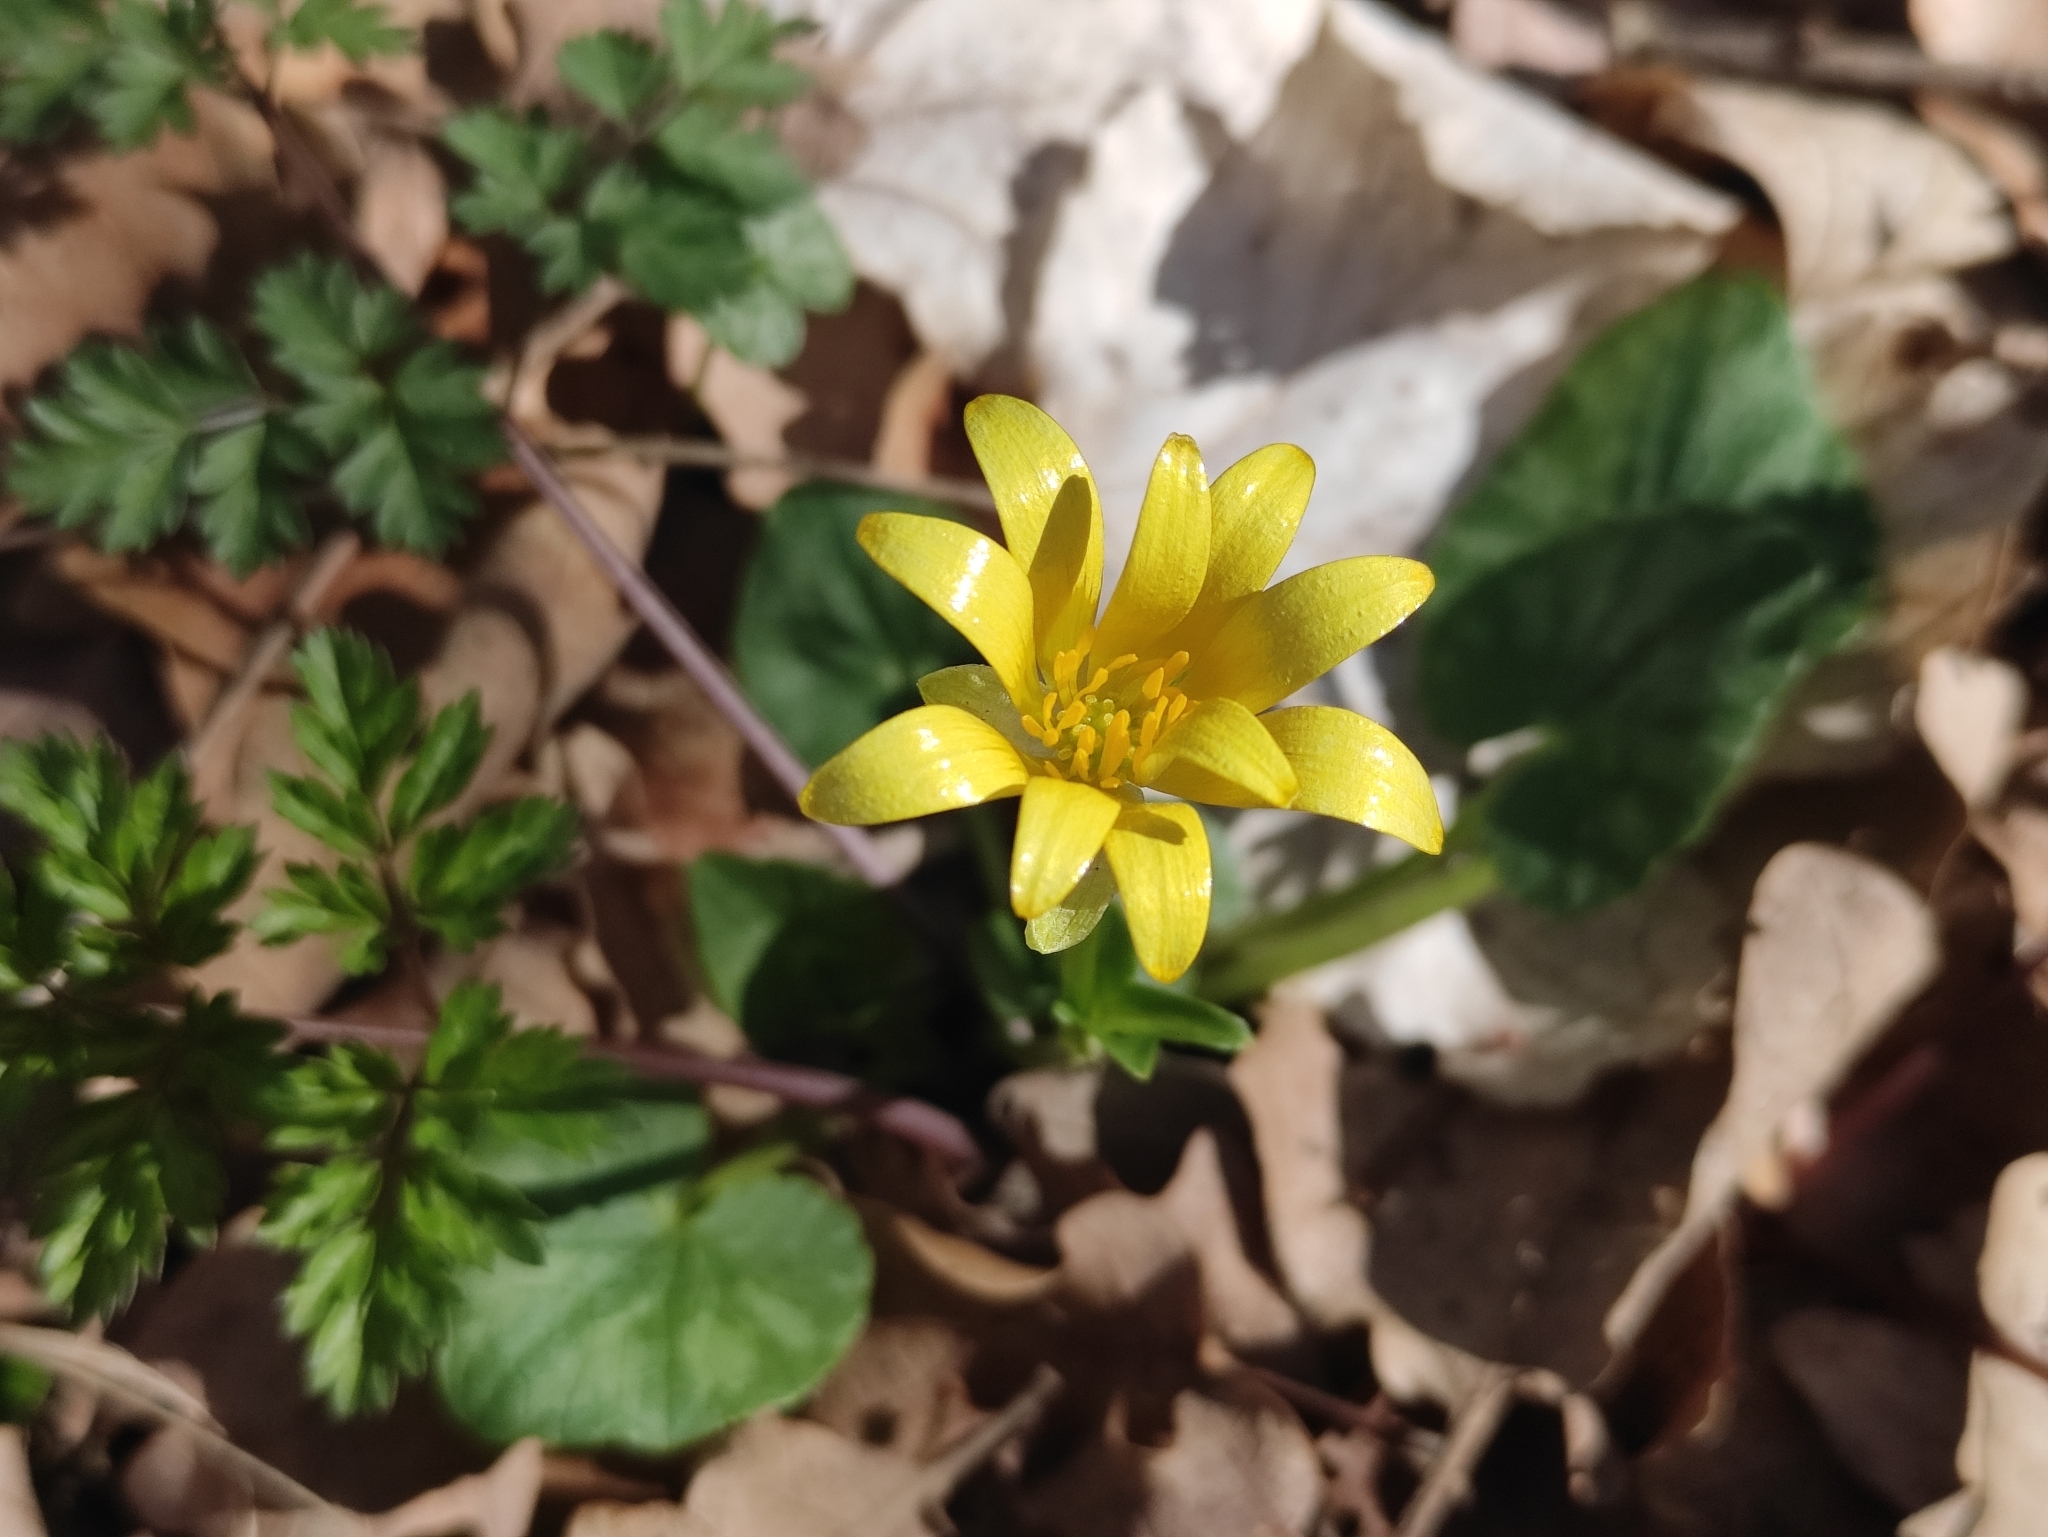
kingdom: Plantae
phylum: Tracheophyta
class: Magnoliopsida
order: Ranunculales
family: Ranunculaceae
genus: Ficaria
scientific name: Ficaria verna
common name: Lesser celandine
